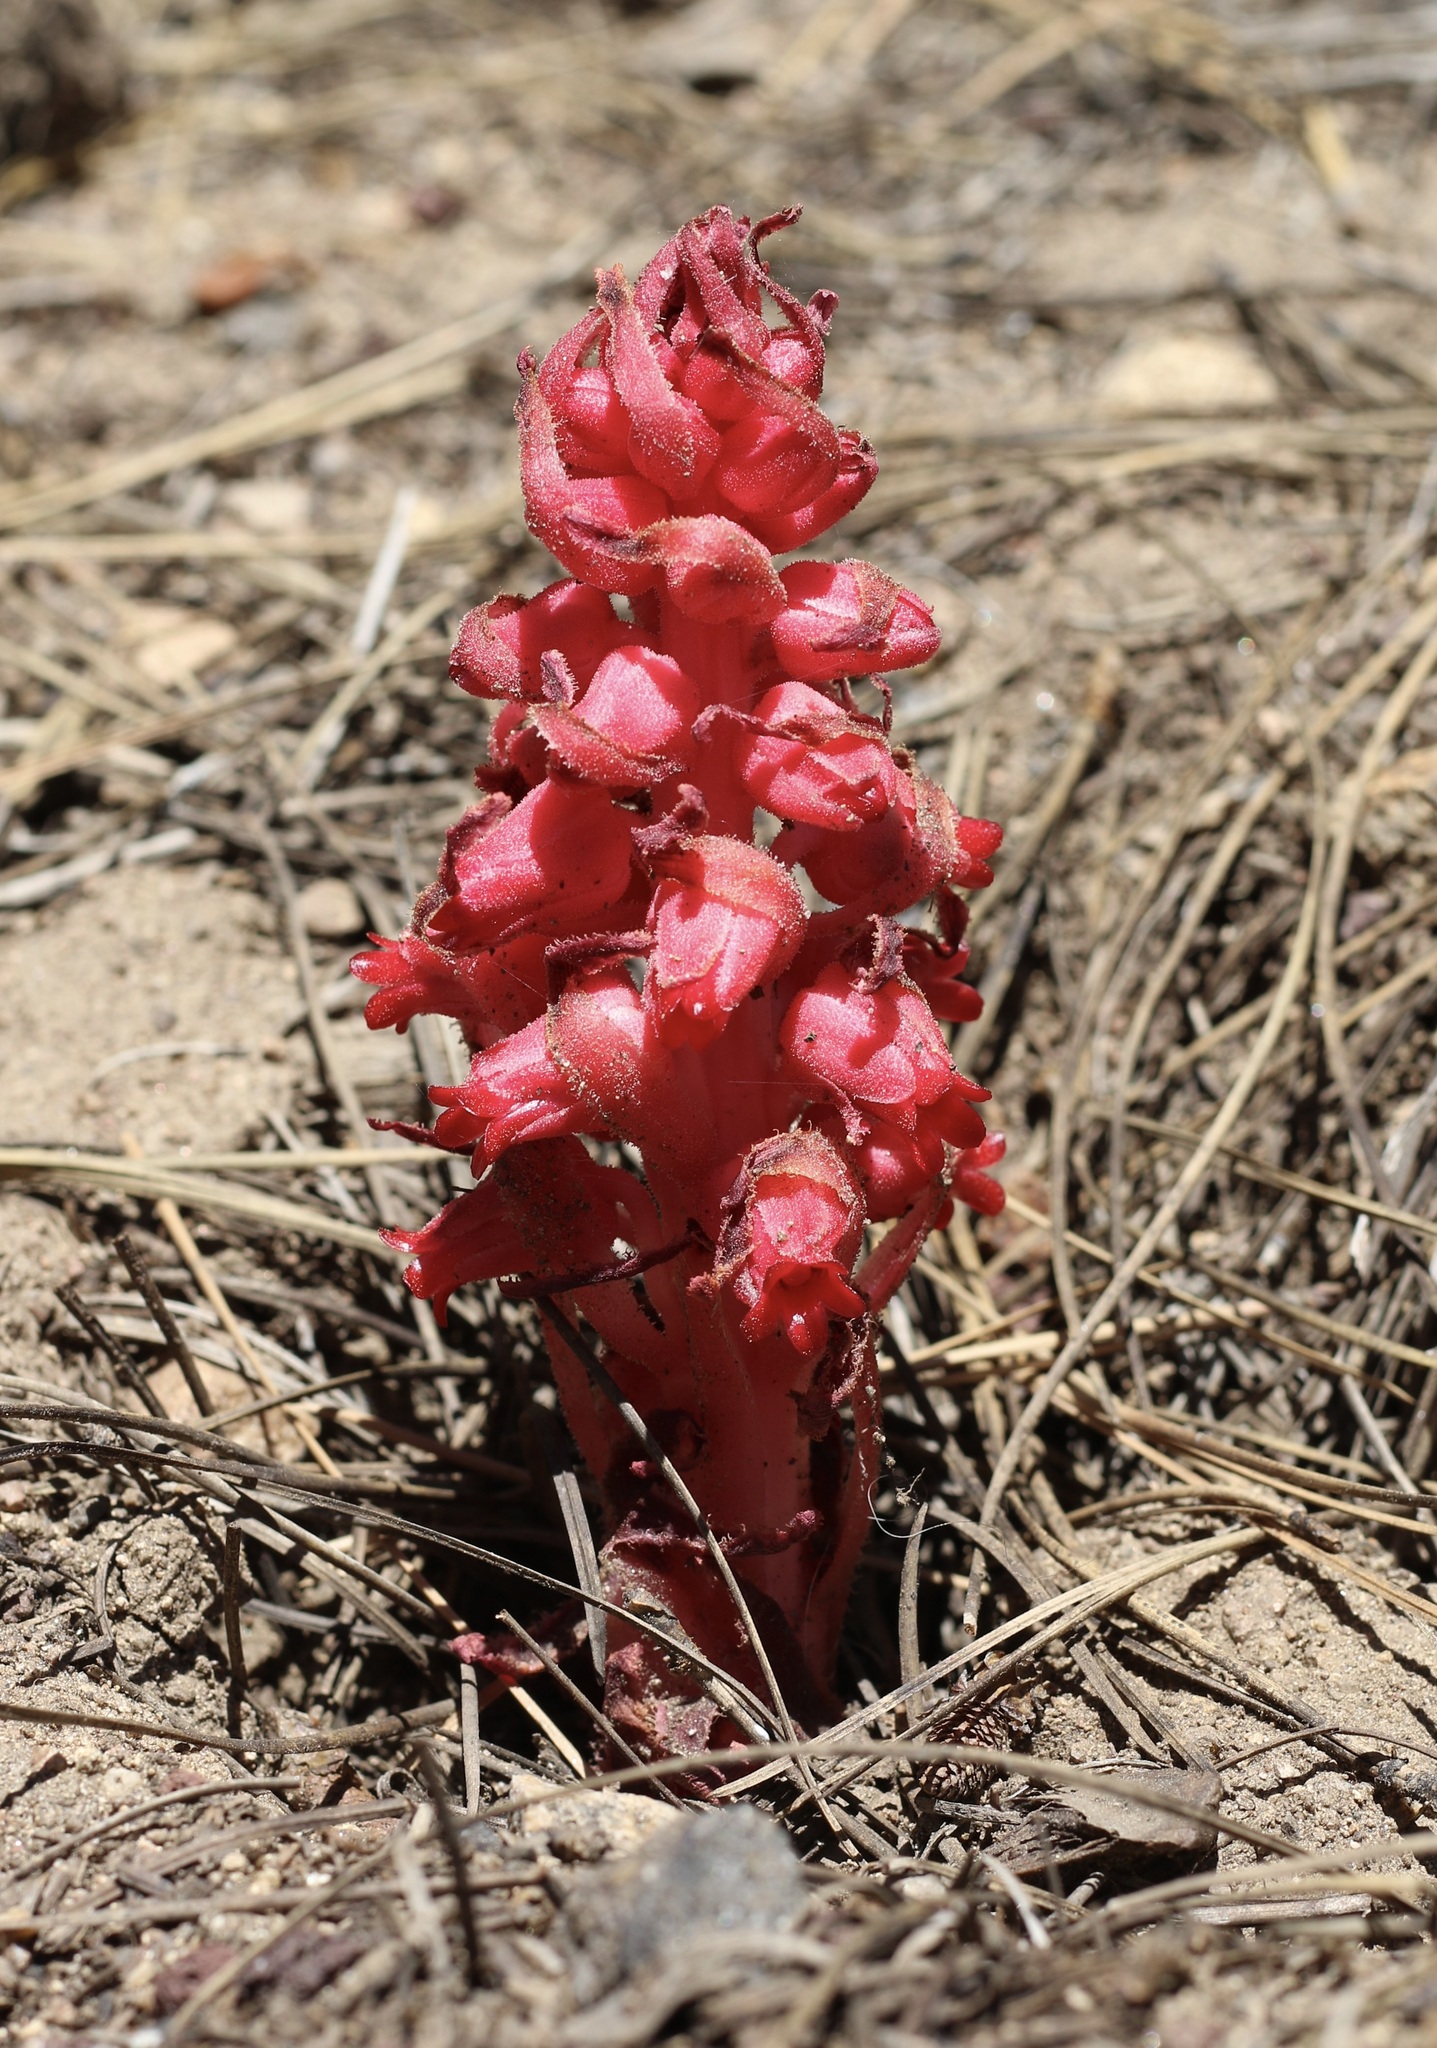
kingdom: Plantae
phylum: Tracheophyta
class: Magnoliopsida
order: Ericales
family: Ericaceae
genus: Sarcodes
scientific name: Sarcodes sanguinea
